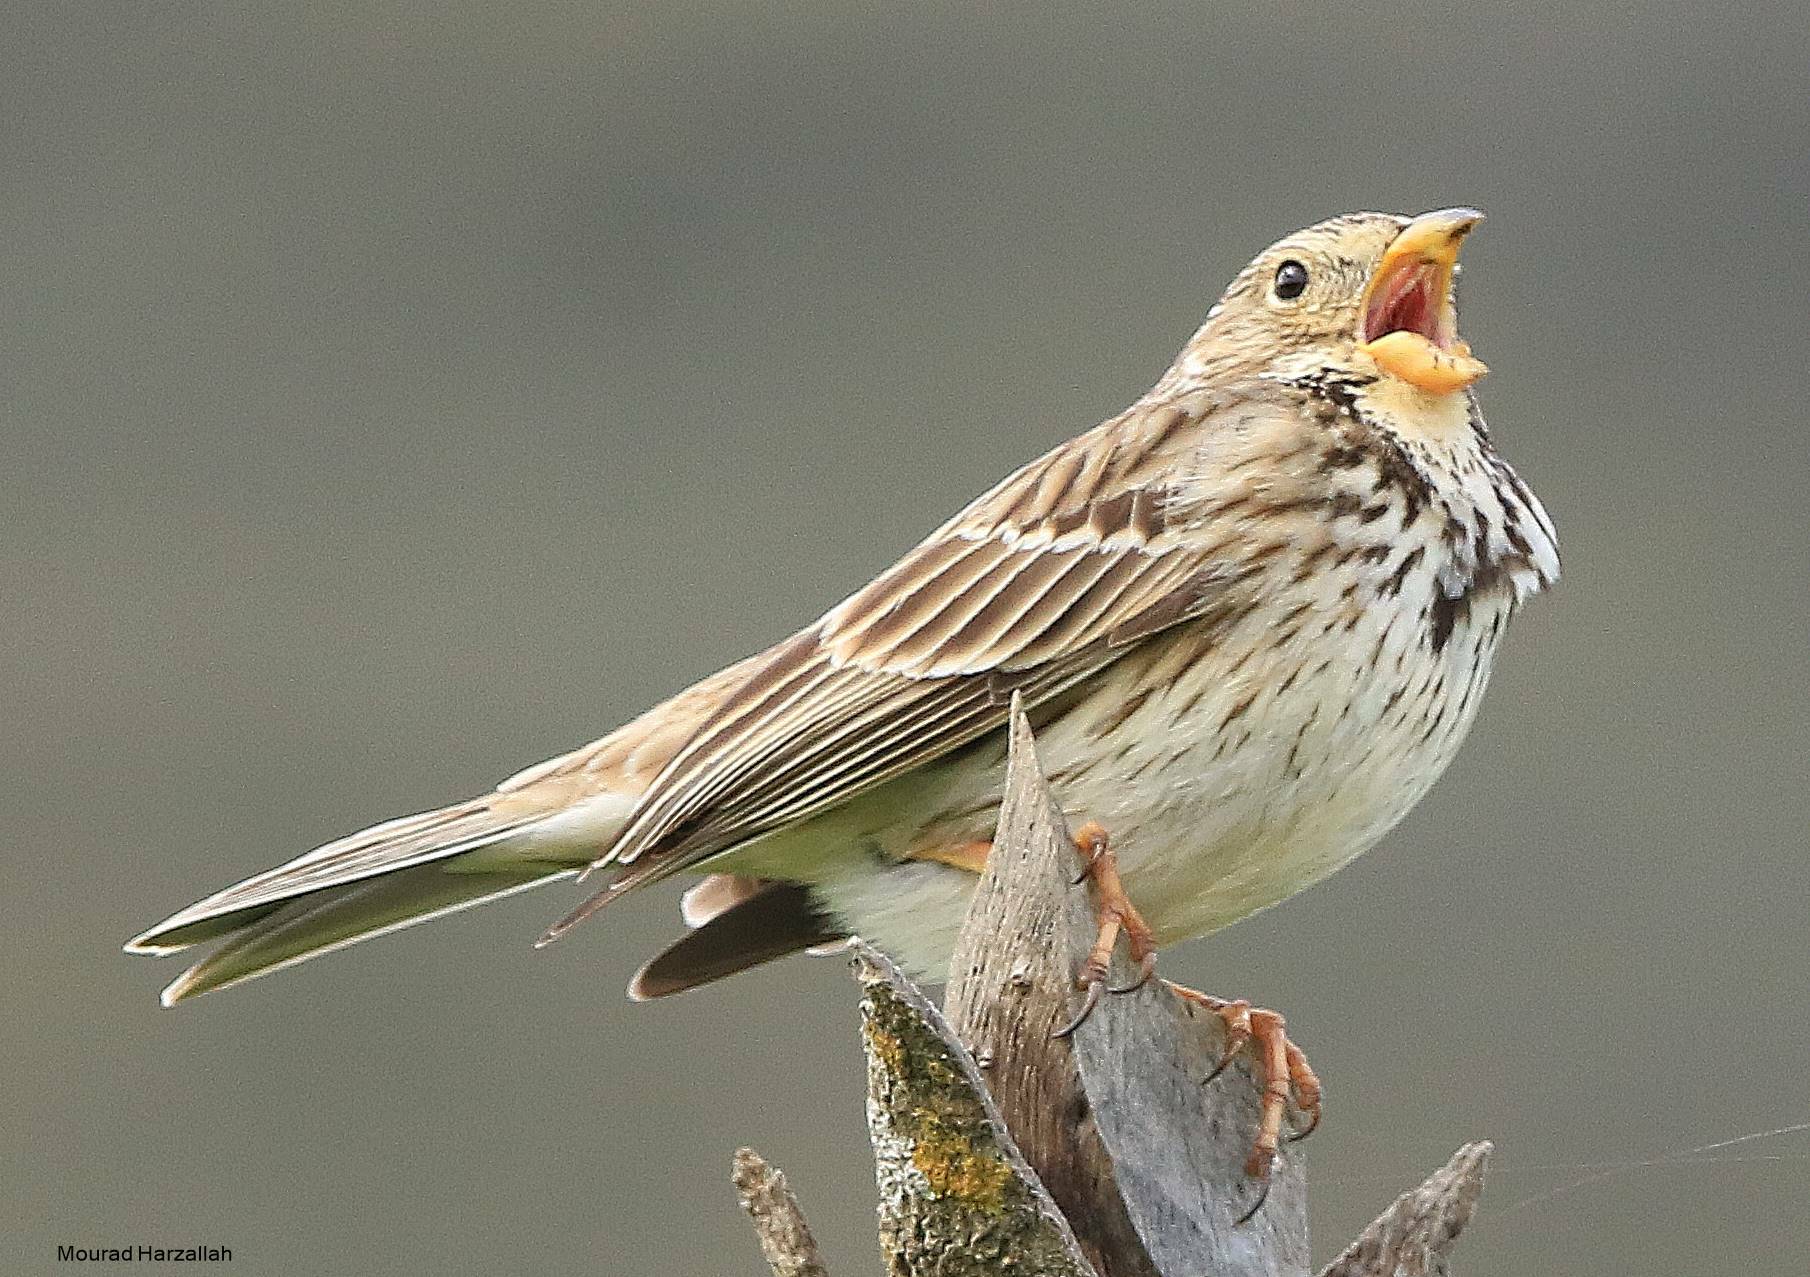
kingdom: Animalia
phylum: Chordata
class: Aves
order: Passeriformes
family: Emberizidae
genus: Emberiza
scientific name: Emberiza calandra
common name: Corn bunting
